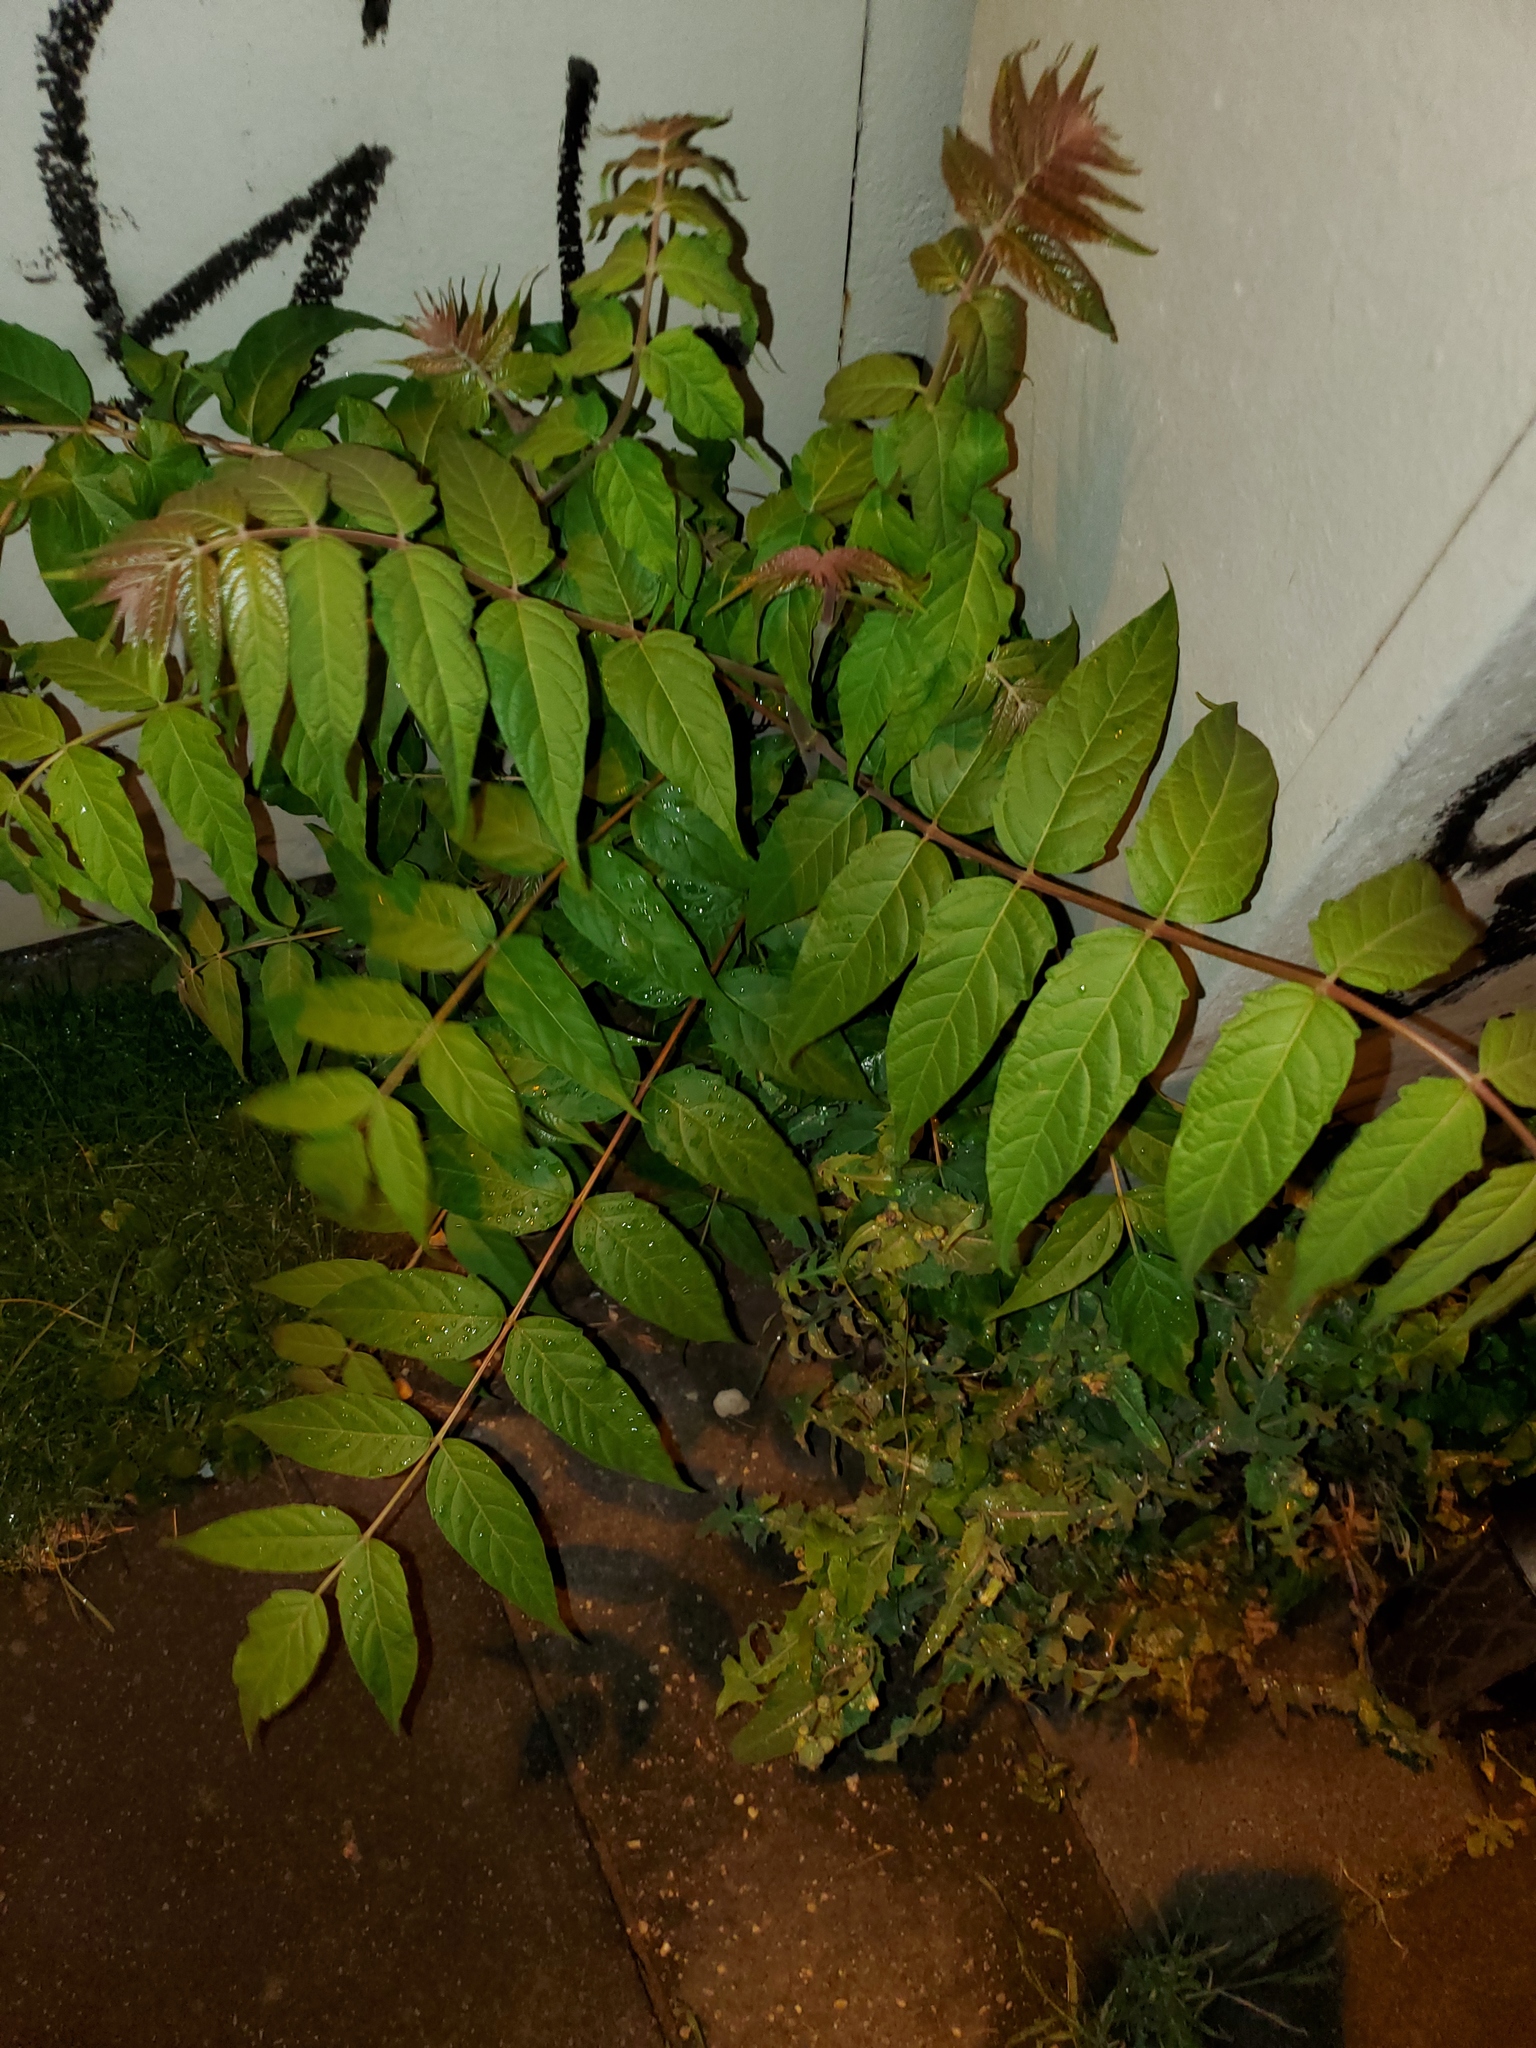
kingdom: Plantae
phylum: Tracheophyta
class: Magnoliopsida
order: Sapindales
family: Simaroubaceae
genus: Ailanthus
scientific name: Ailanthus altissima
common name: Tree-of-heaven
